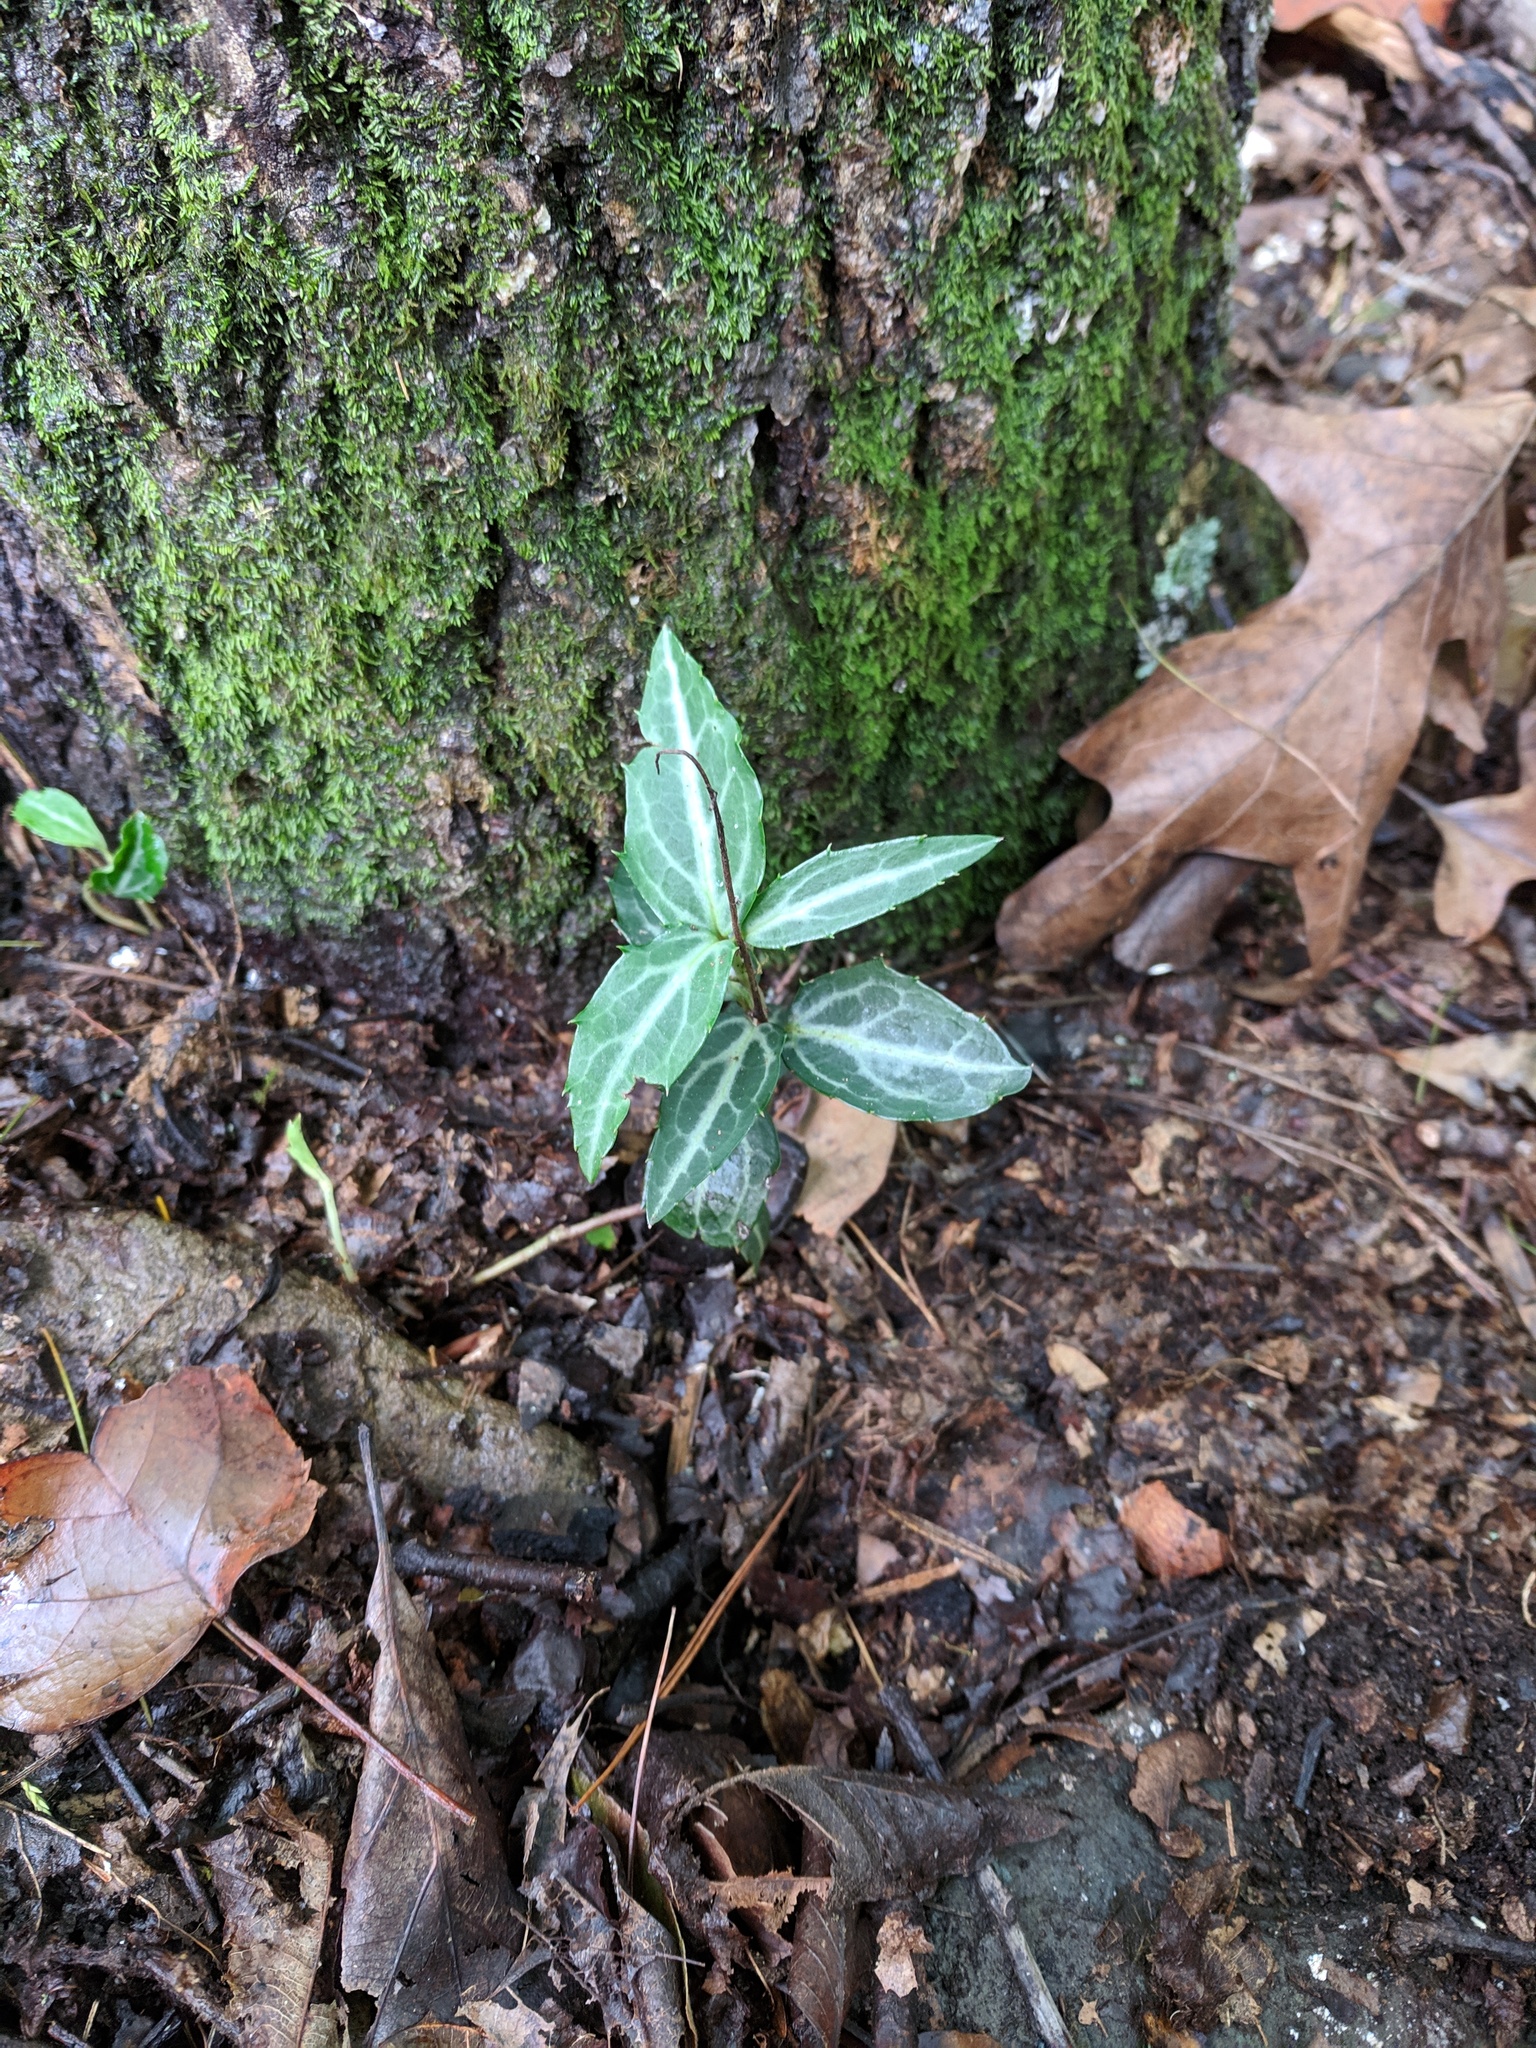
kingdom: Plantae
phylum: Tracheophyta
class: Magnoliopsida
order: Ericales
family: Ericaceae
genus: Chimaphila
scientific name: Chimaphila maculata
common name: Spotted pipsissewa
